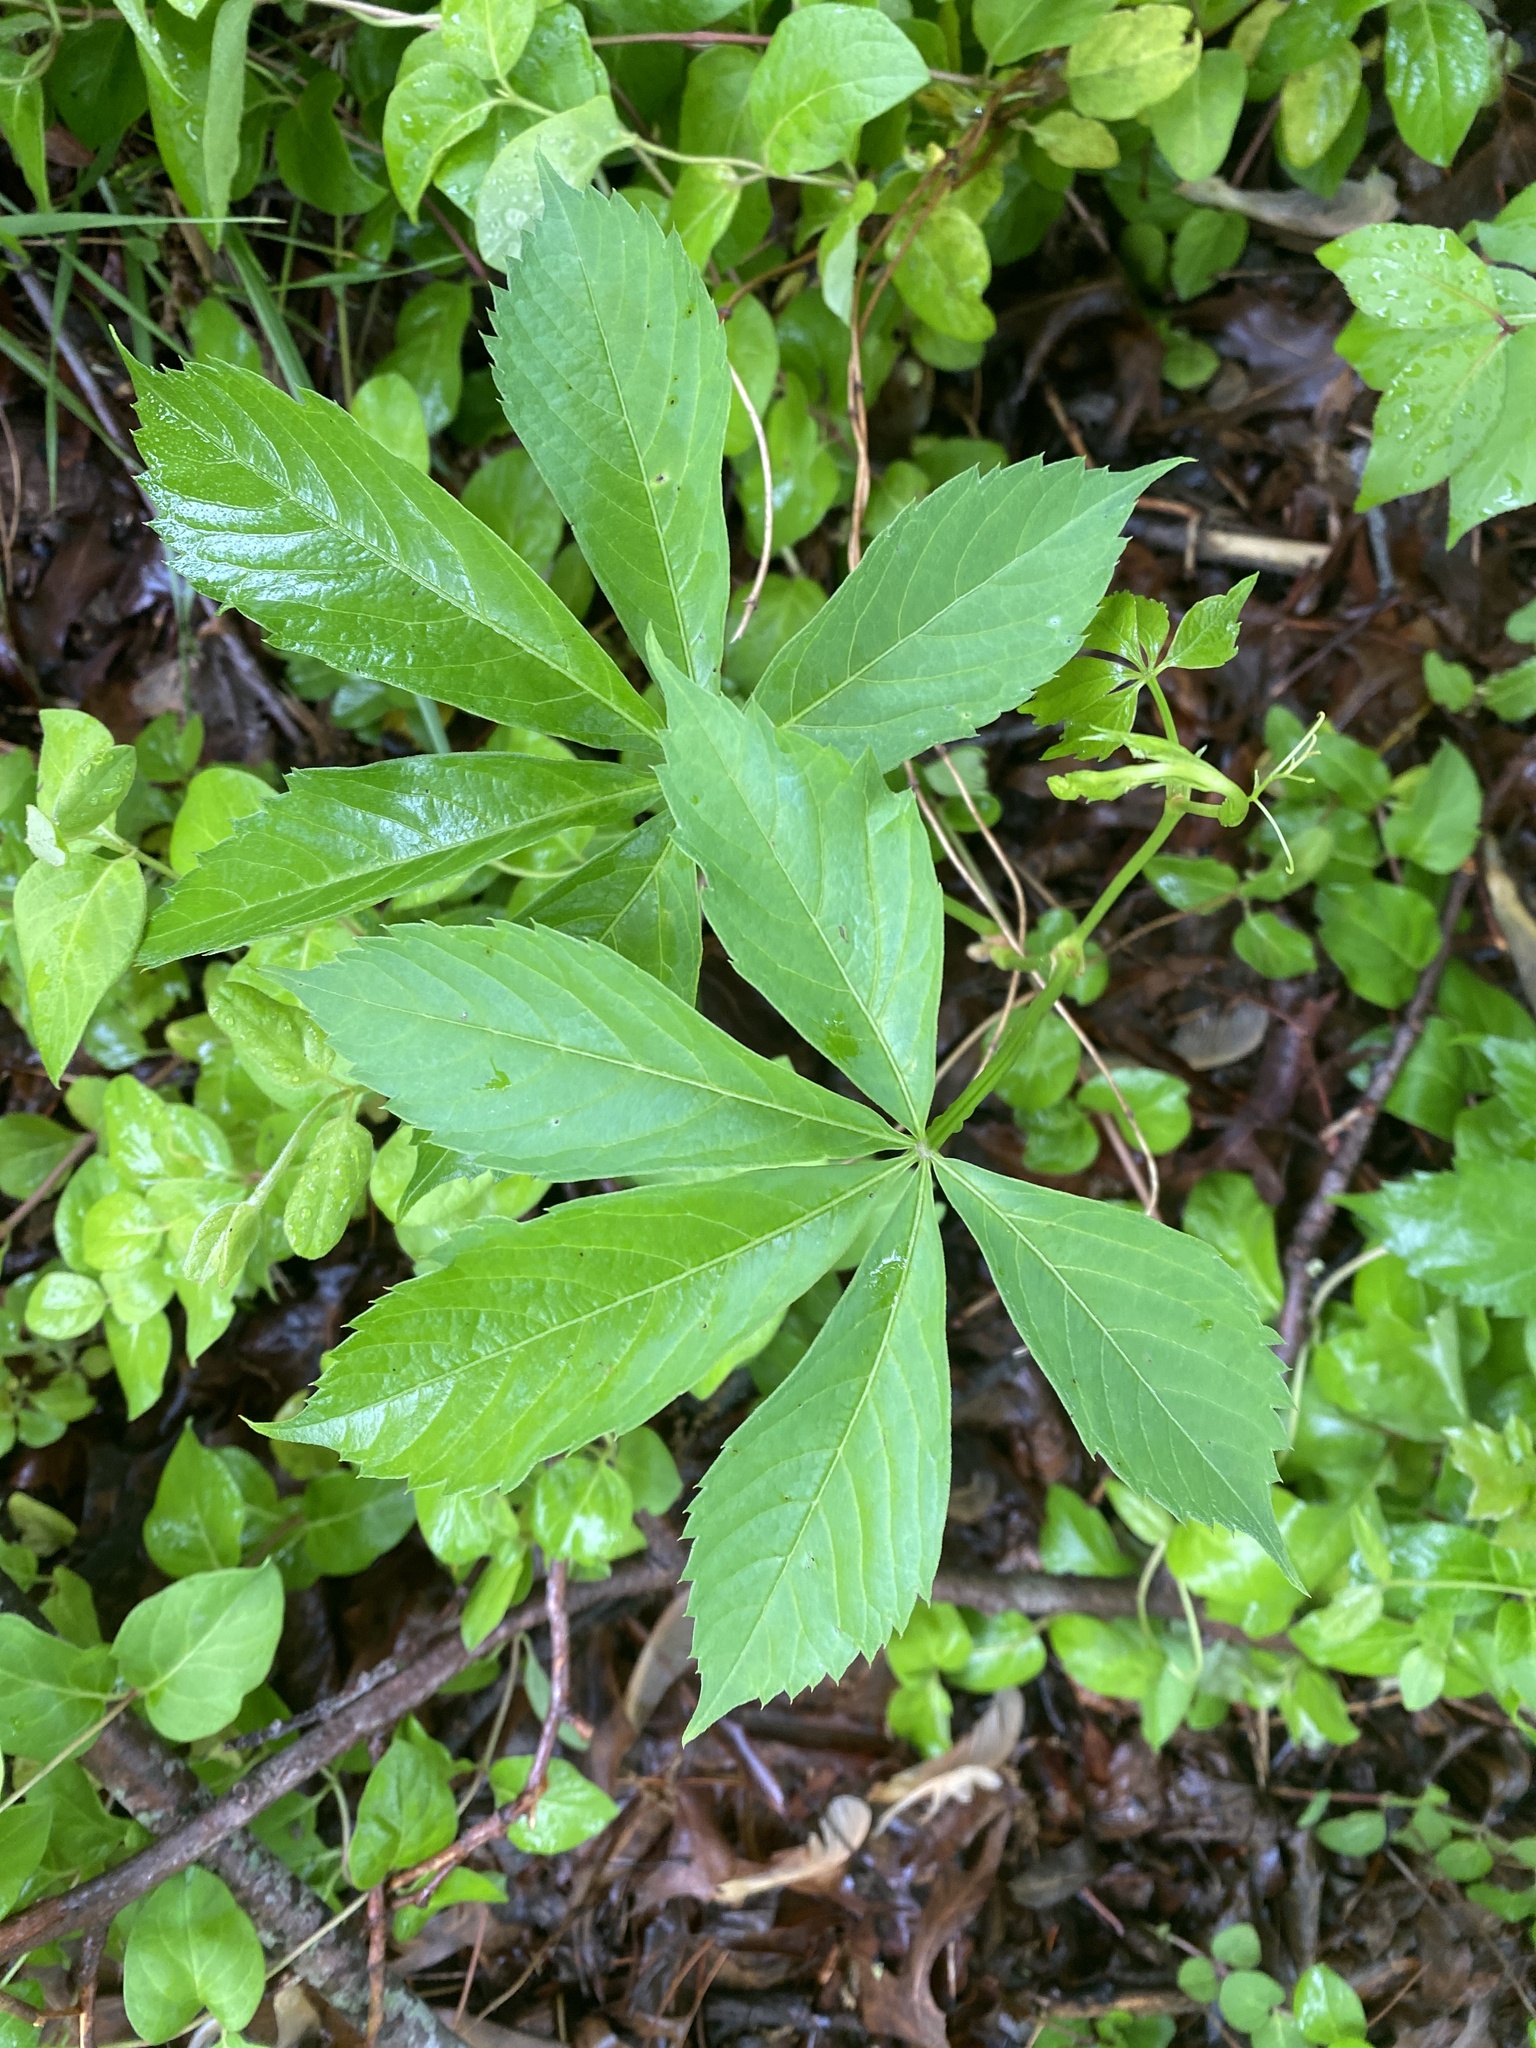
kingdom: Plantae
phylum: Tracheophyta
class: Magnoliopsida
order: Vitales
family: Vitaceae
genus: Parthenocissus
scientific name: Parthenocissus quinquefolia
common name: Virginia-creeper
